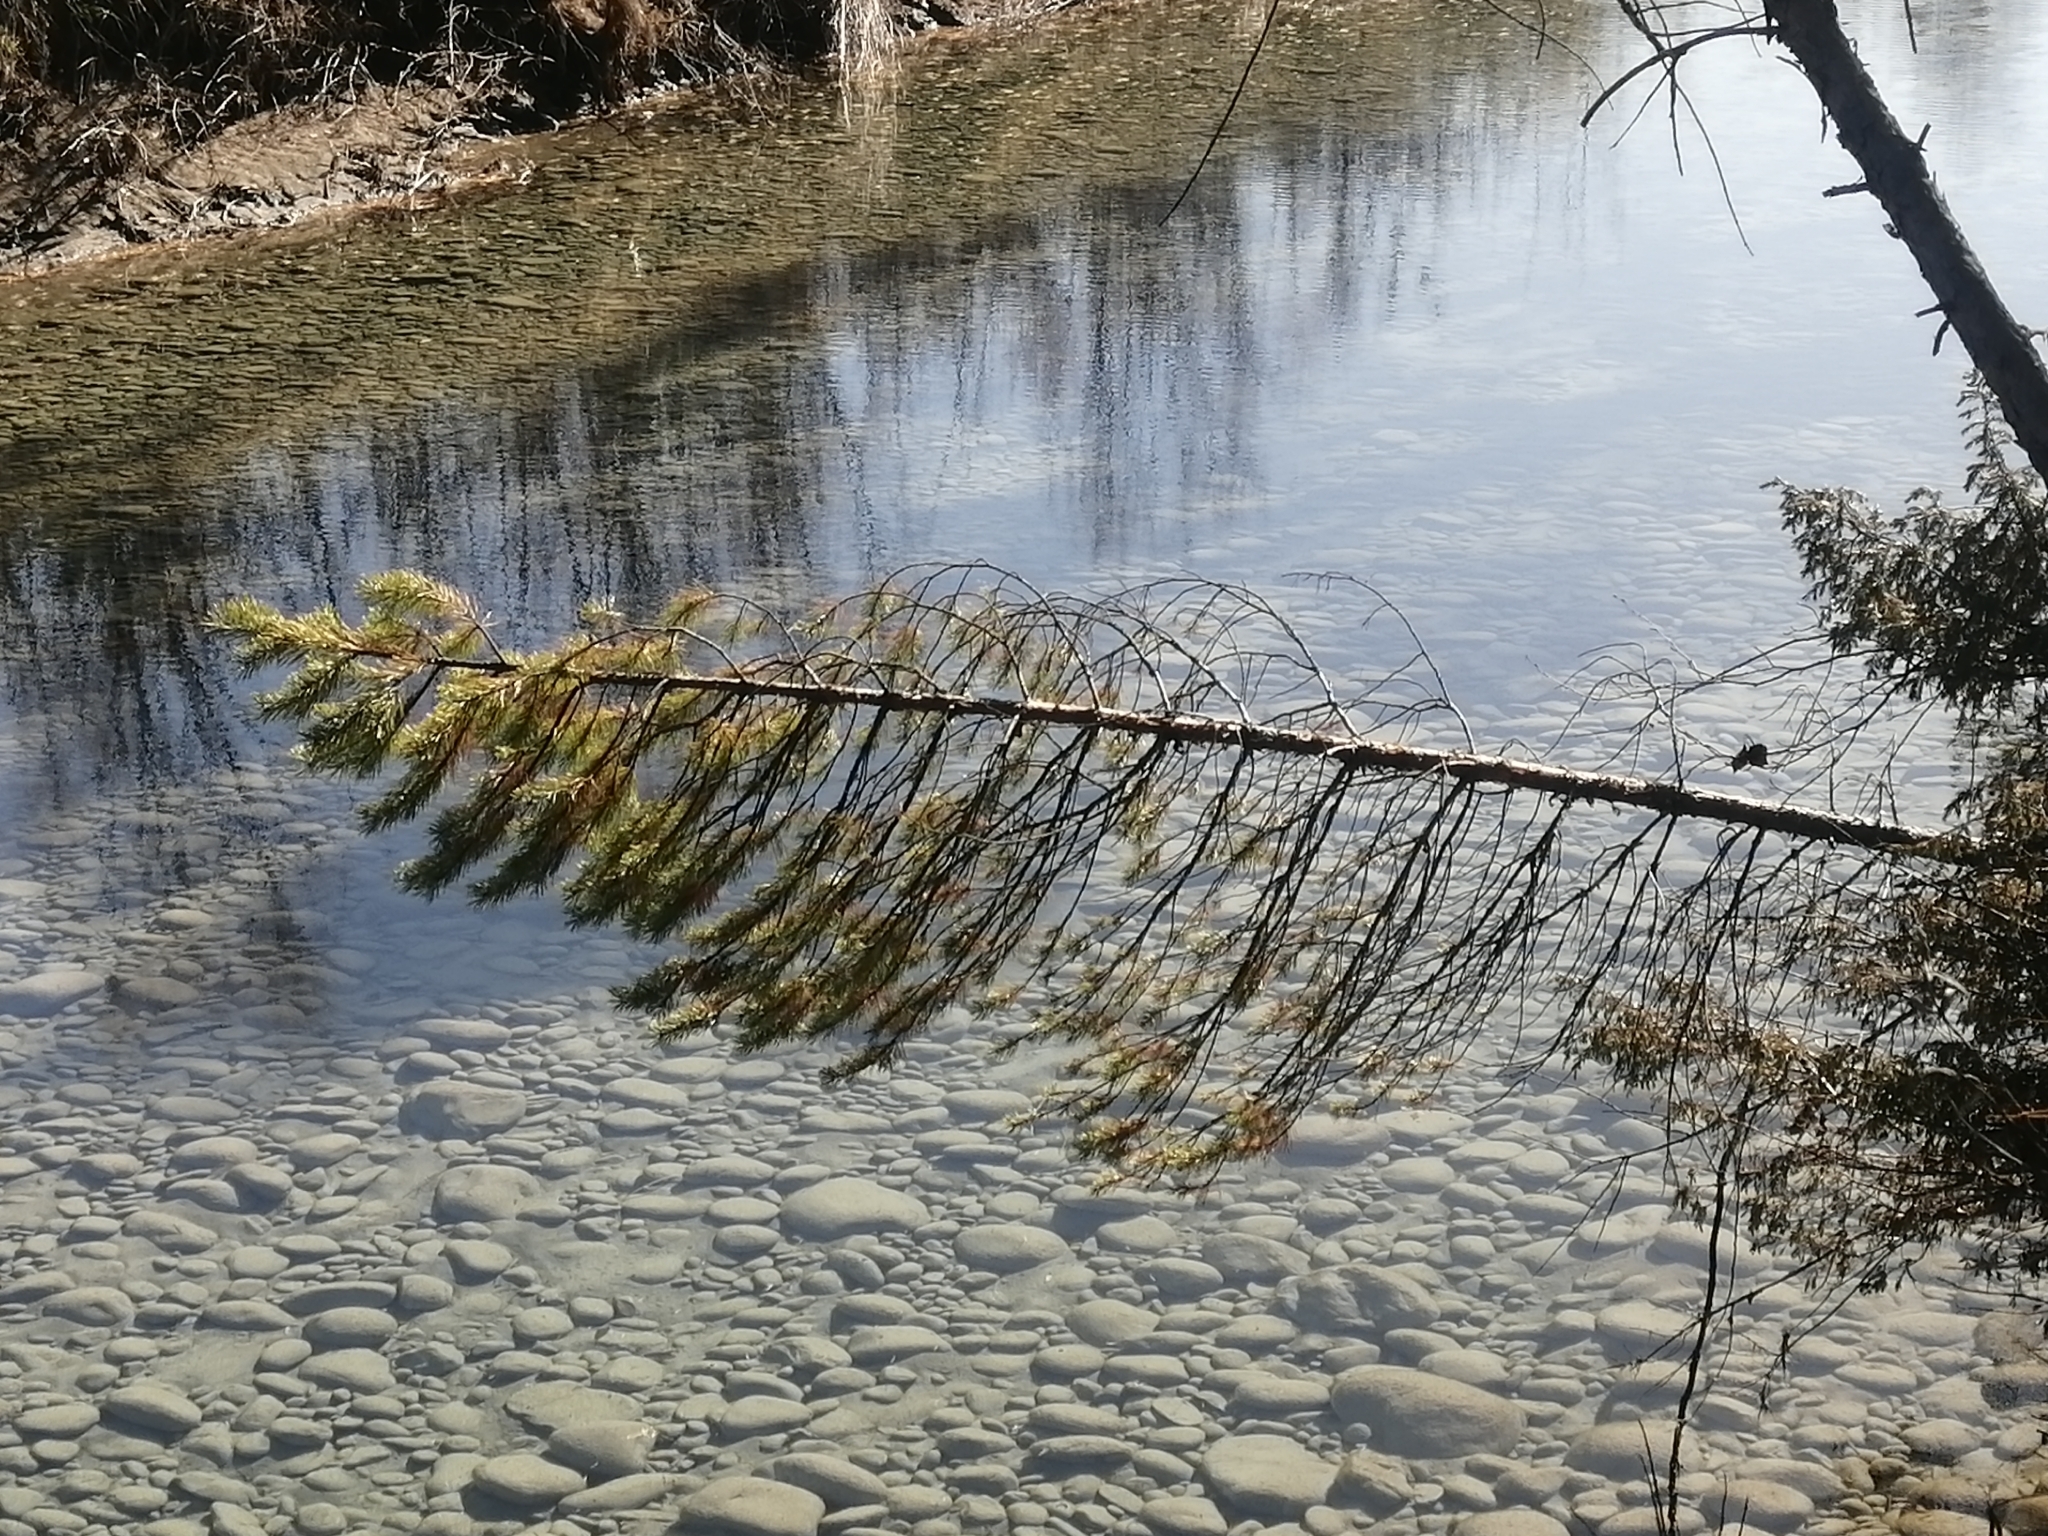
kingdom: Plantae
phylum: Tracheophyta
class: Pinopsida
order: Pinales
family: Pinaceae
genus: Pinus
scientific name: Pinus sylvestris
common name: Scots pine
